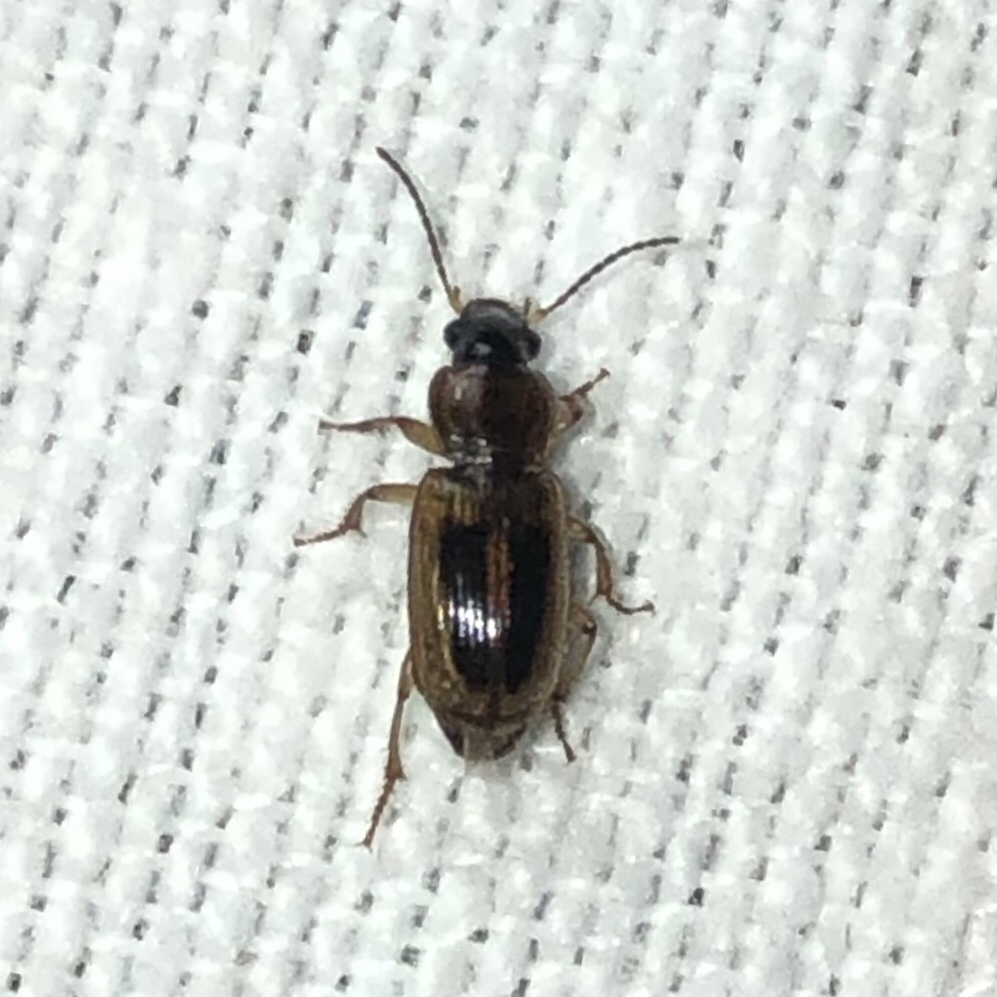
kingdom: Animalia
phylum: Arthropoda
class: Insecta
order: Coleoptera
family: Carabidae
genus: Stenolophus
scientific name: Stenolophus lecontei
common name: Leconte's seedcorn beetle
